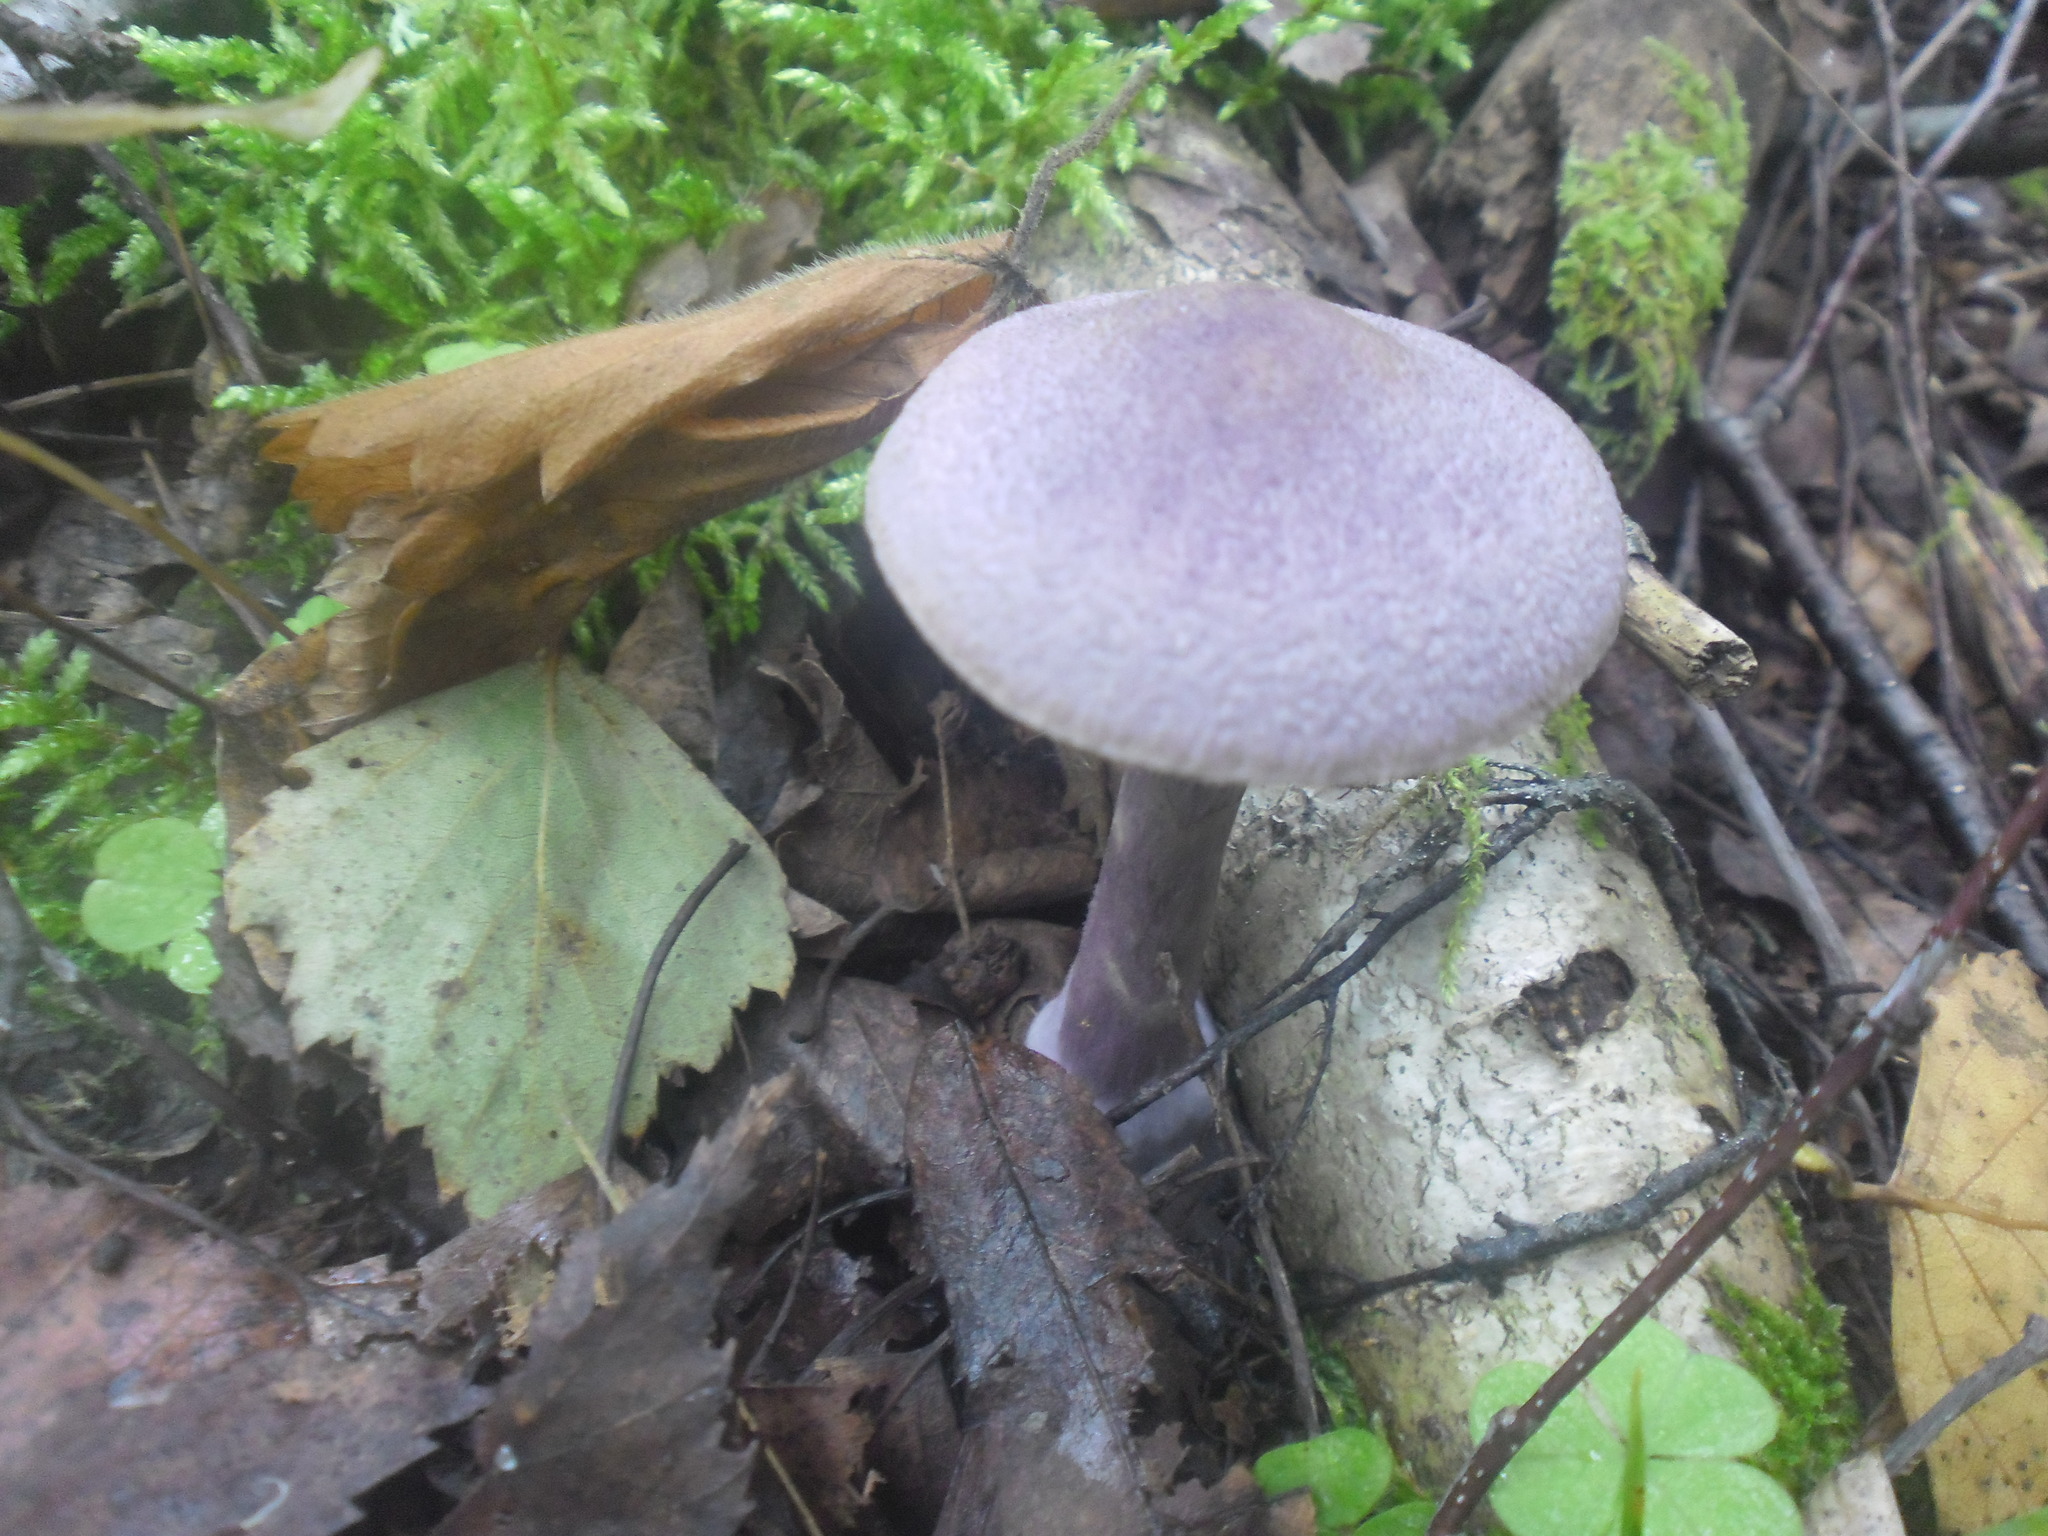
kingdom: Fungi
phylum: Basidiomycota
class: Agaricomycetes
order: Agaricales
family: Cortinariaceae
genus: Cortinarius
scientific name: Cortinarius violaceus
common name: Violet webcap
